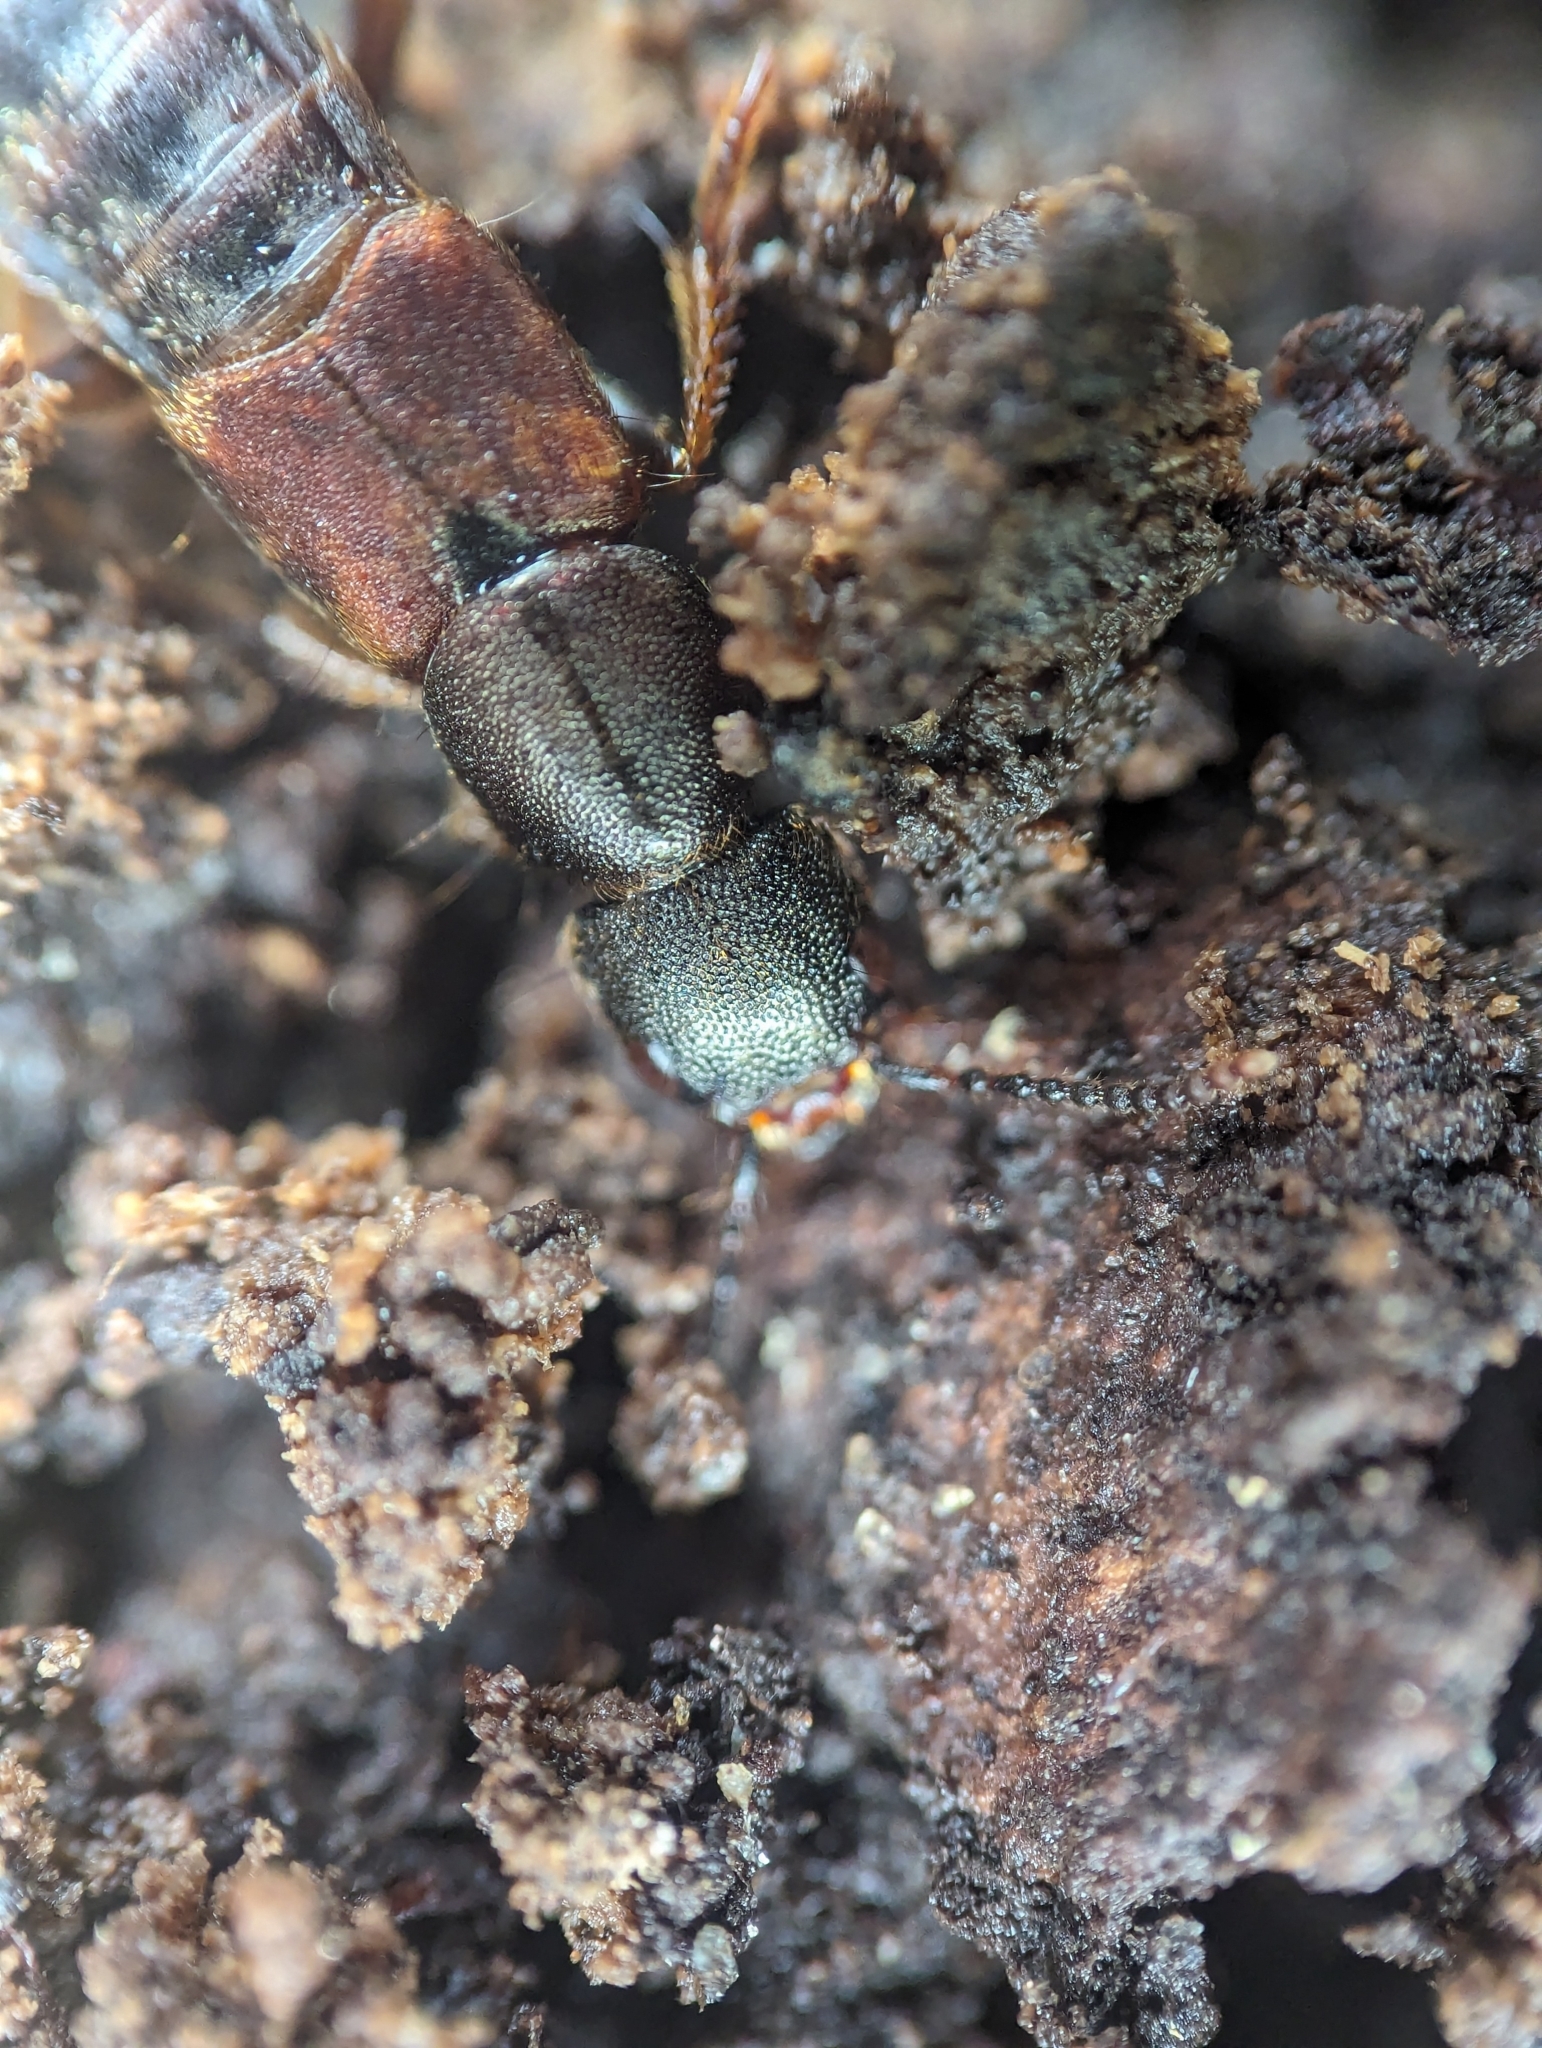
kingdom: Animalia
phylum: Arthropoda
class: Insecta
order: Coleoptera
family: Staphylinidae
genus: Platydracus
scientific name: Platydracus cinnamopterus
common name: Cinnamon rove beetle
